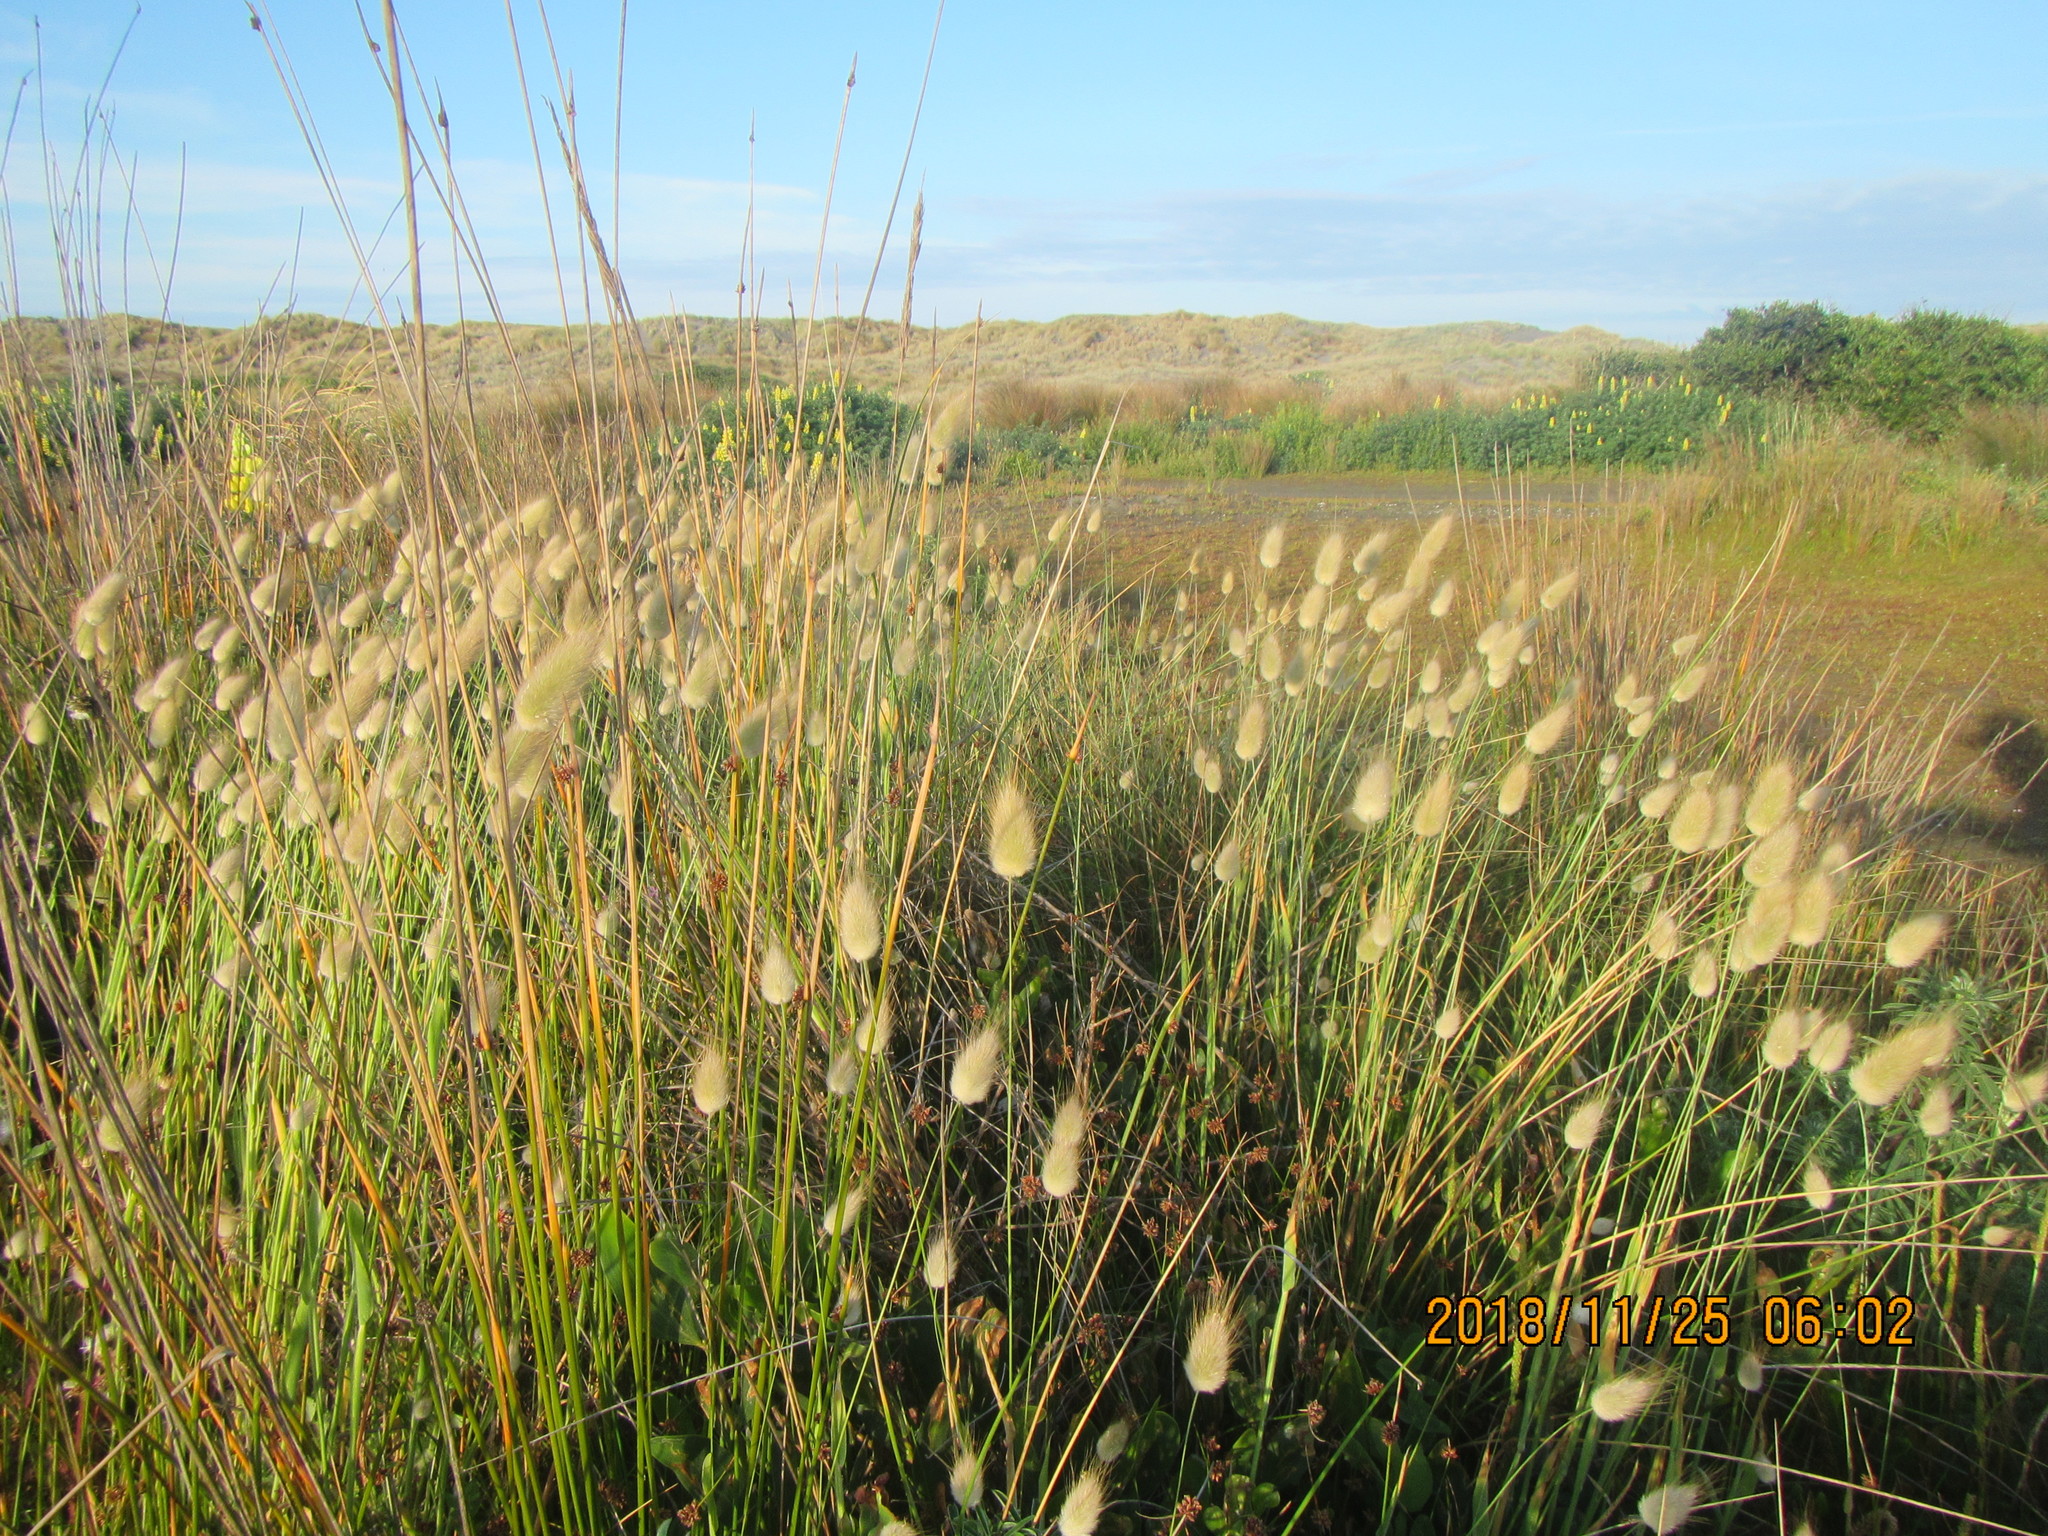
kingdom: Plantae
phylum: Tracheophyta
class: Liliopsida
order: Poales
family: Poaceae
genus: Lagurus
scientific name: Lagurus ovatus
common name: Hare's-tail
